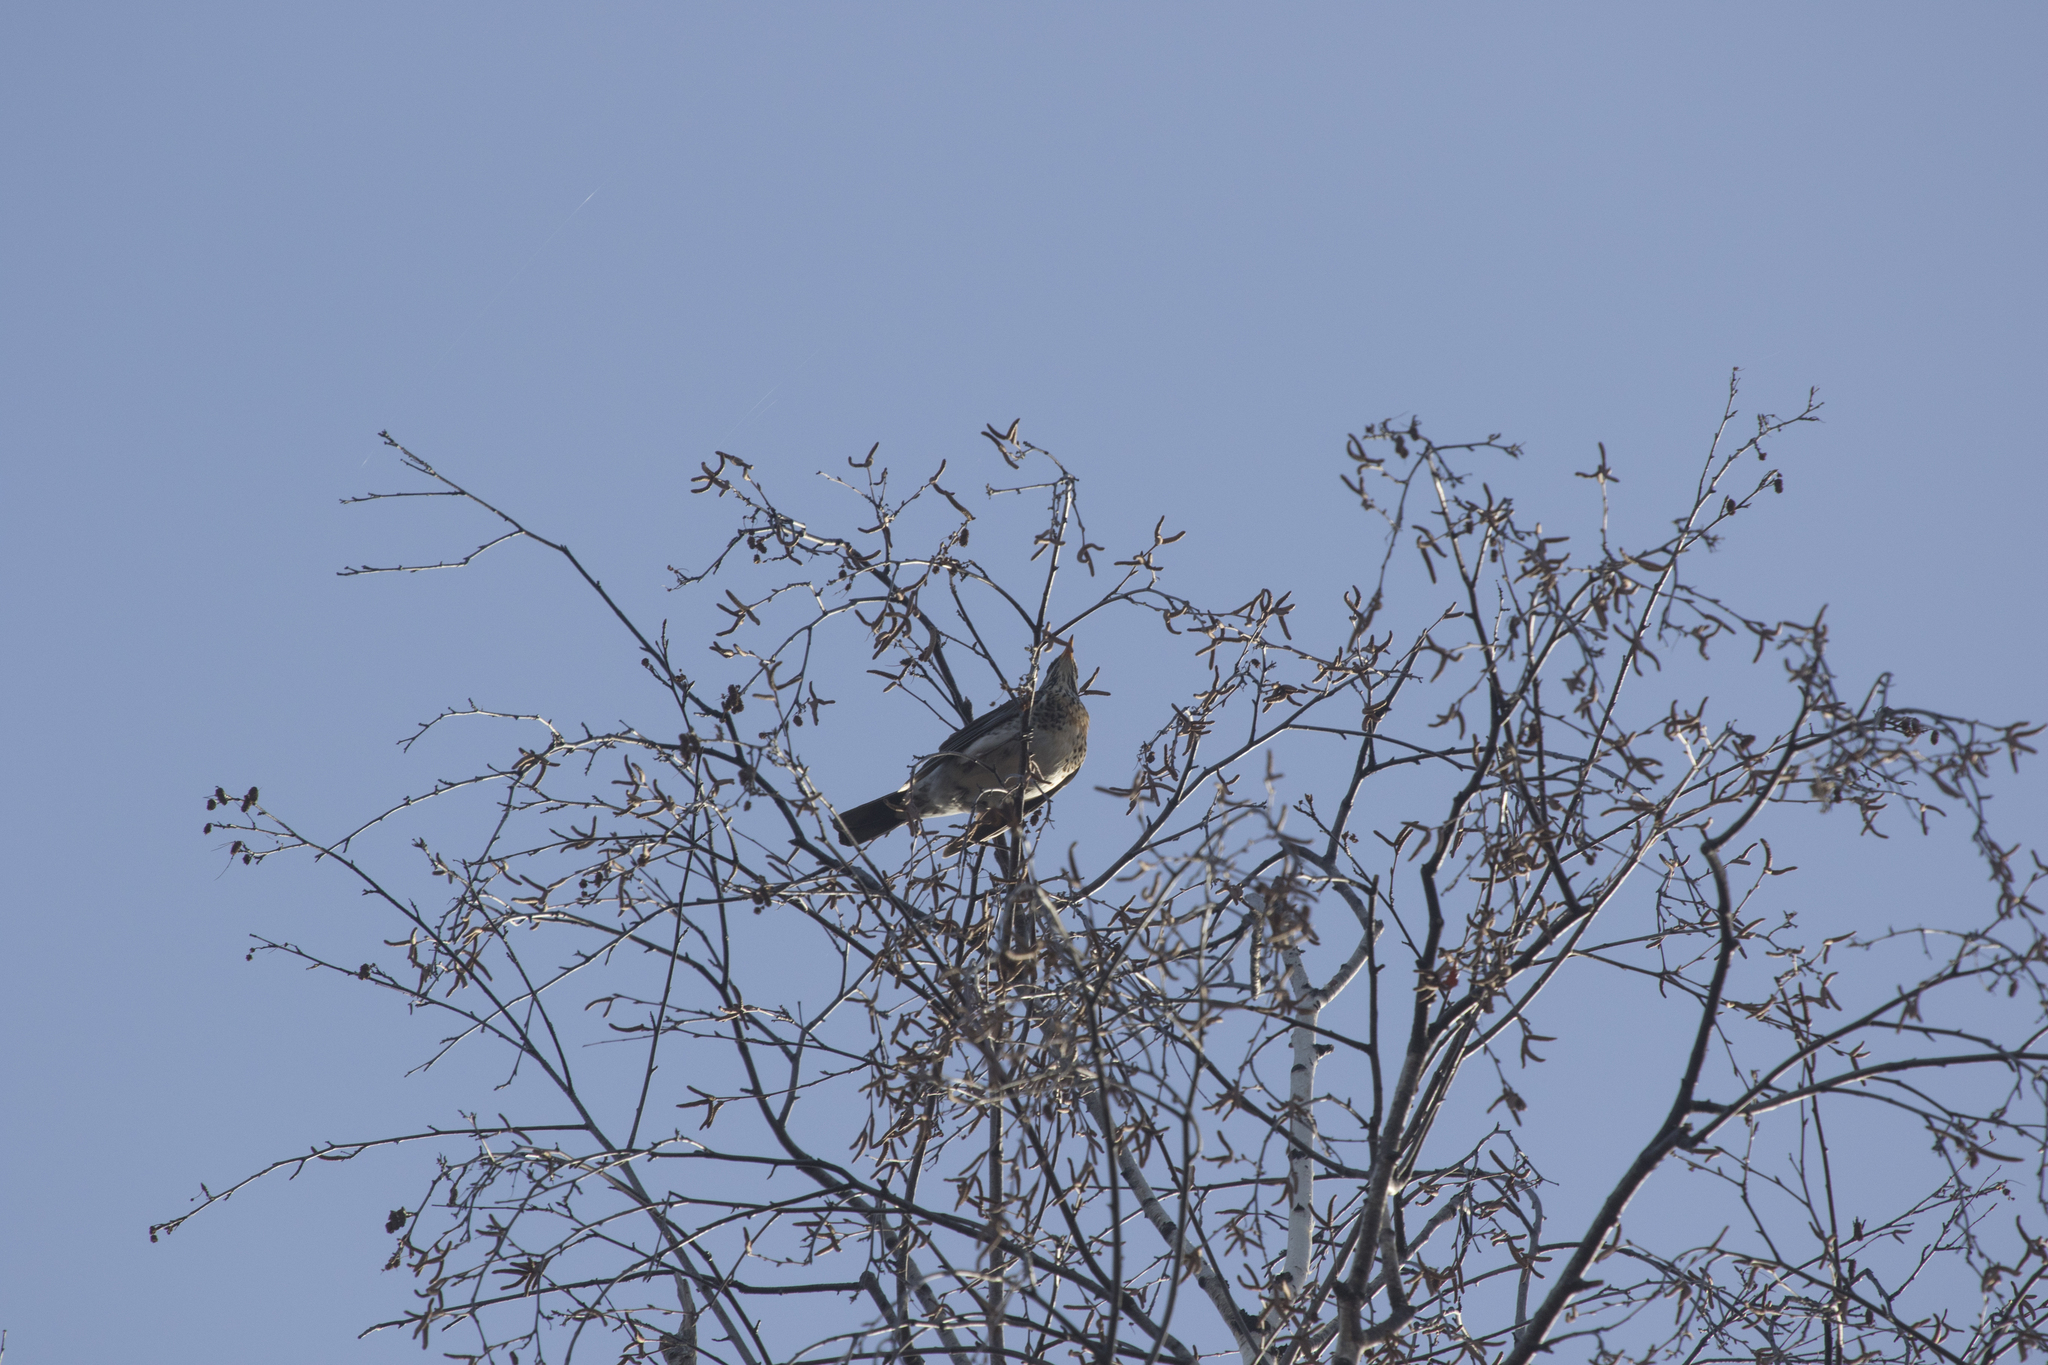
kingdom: Animalia
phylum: Chordata
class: Aves
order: Passeriformes
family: Turdidae
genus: Turdus
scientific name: Turdus pilaris
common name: Fieldfare
